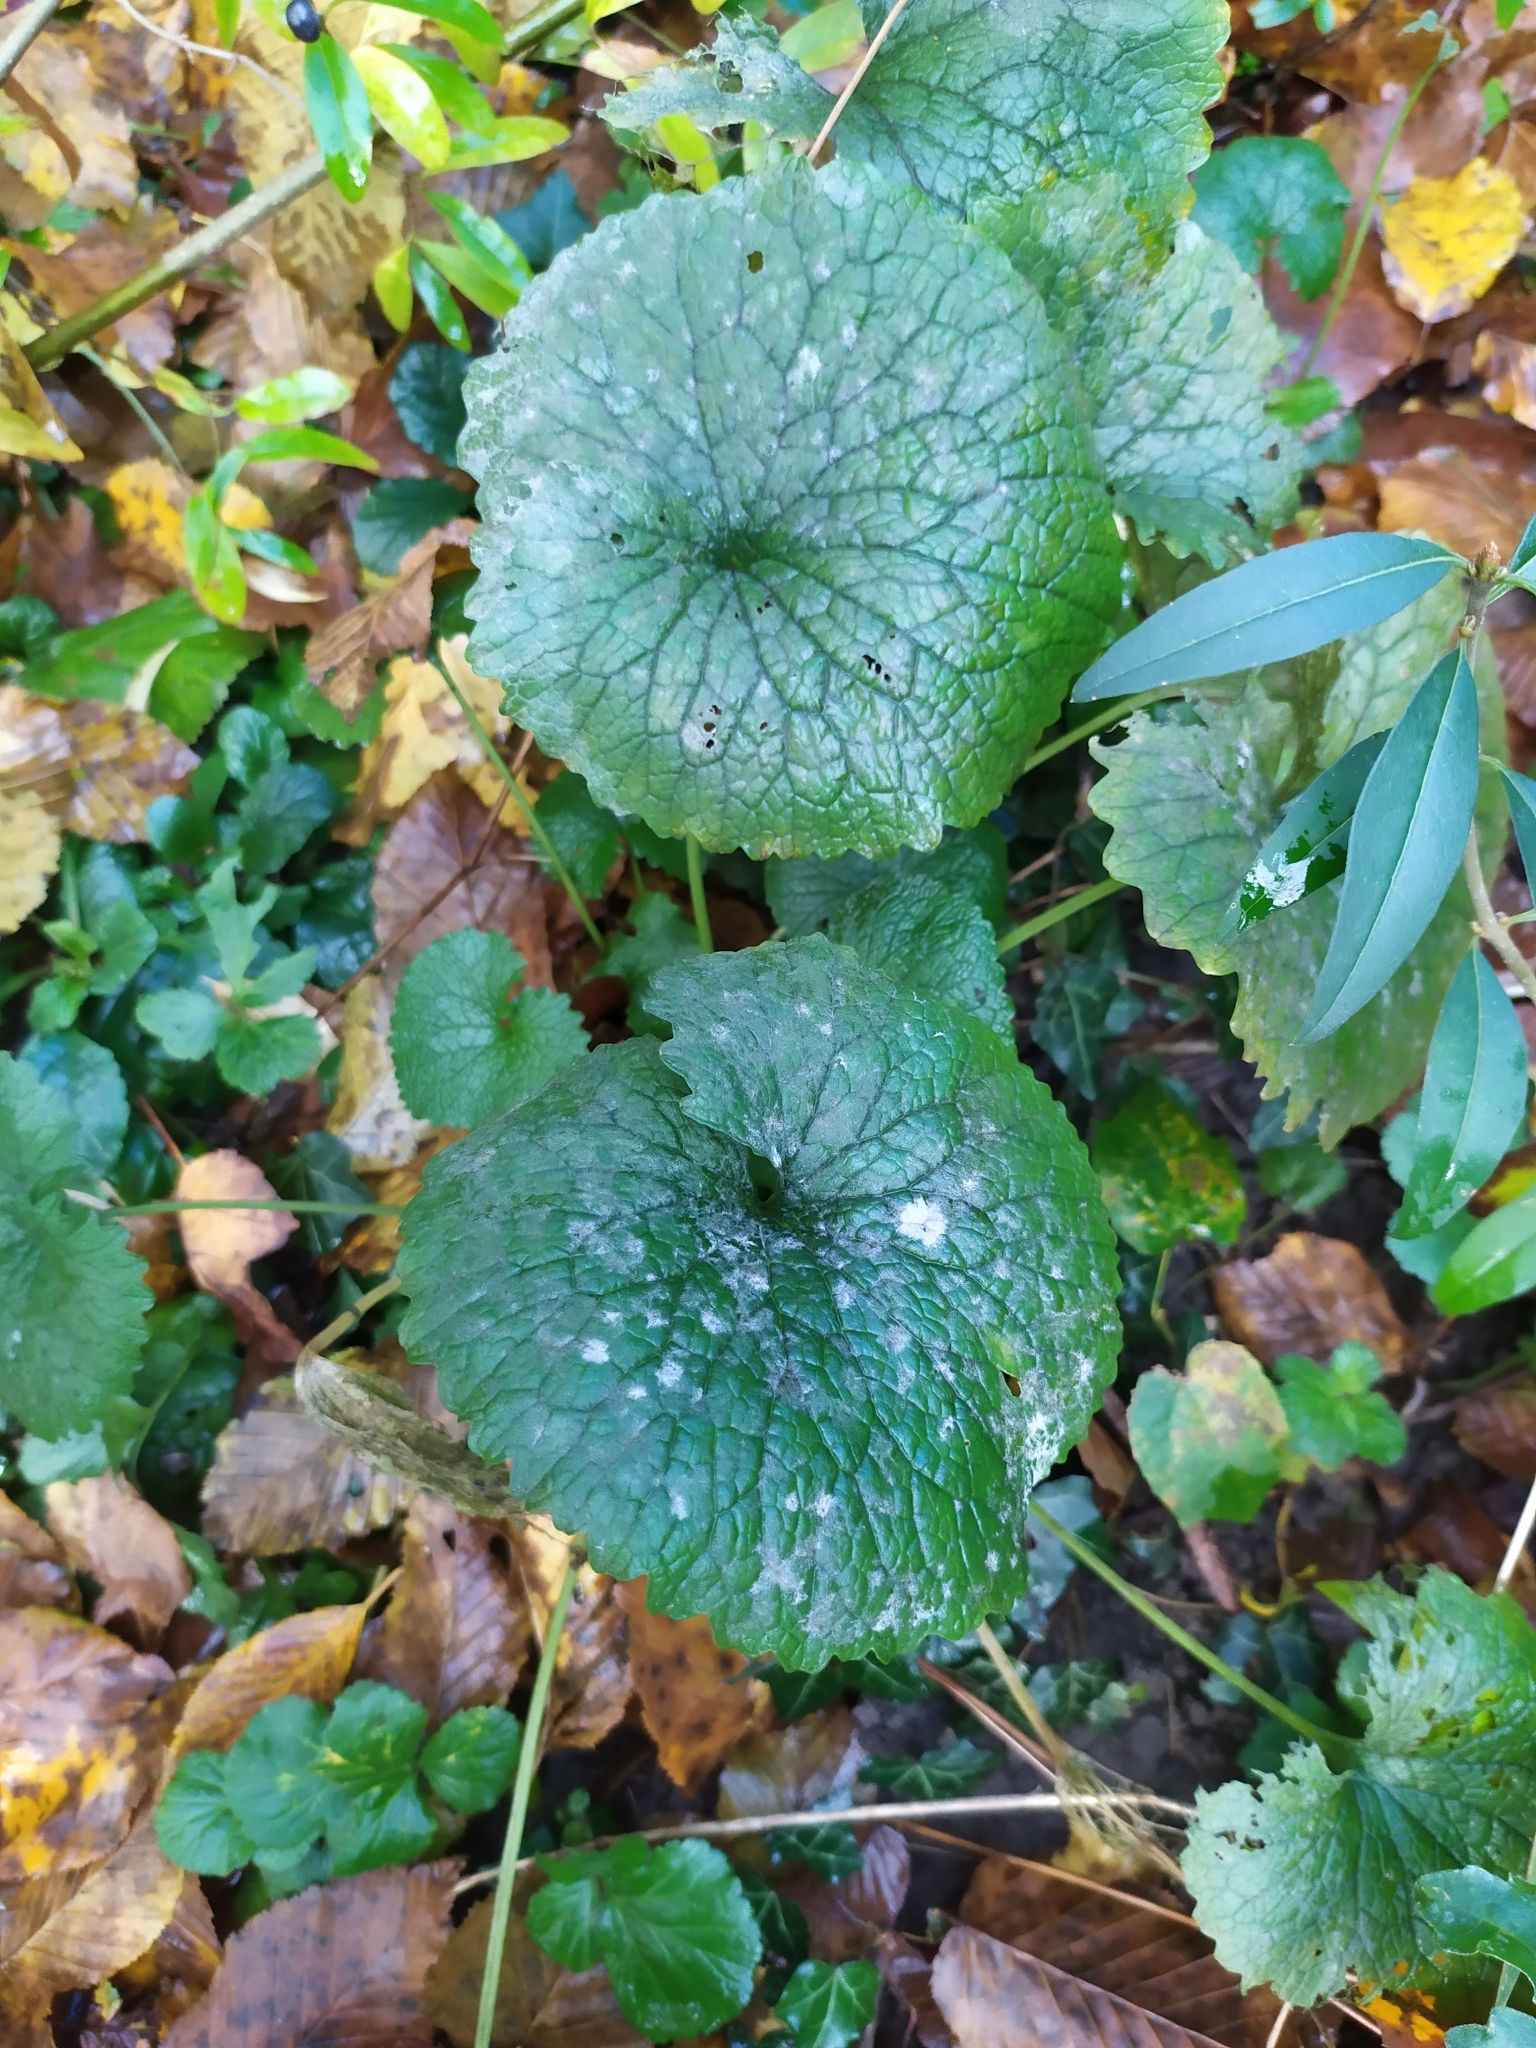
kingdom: Plantae
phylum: Tracheophyta
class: Magnoliopsida
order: Brassicales
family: Brassicaceae
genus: Alliaria
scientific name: Alliaria petiolata
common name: Garlic mustard
